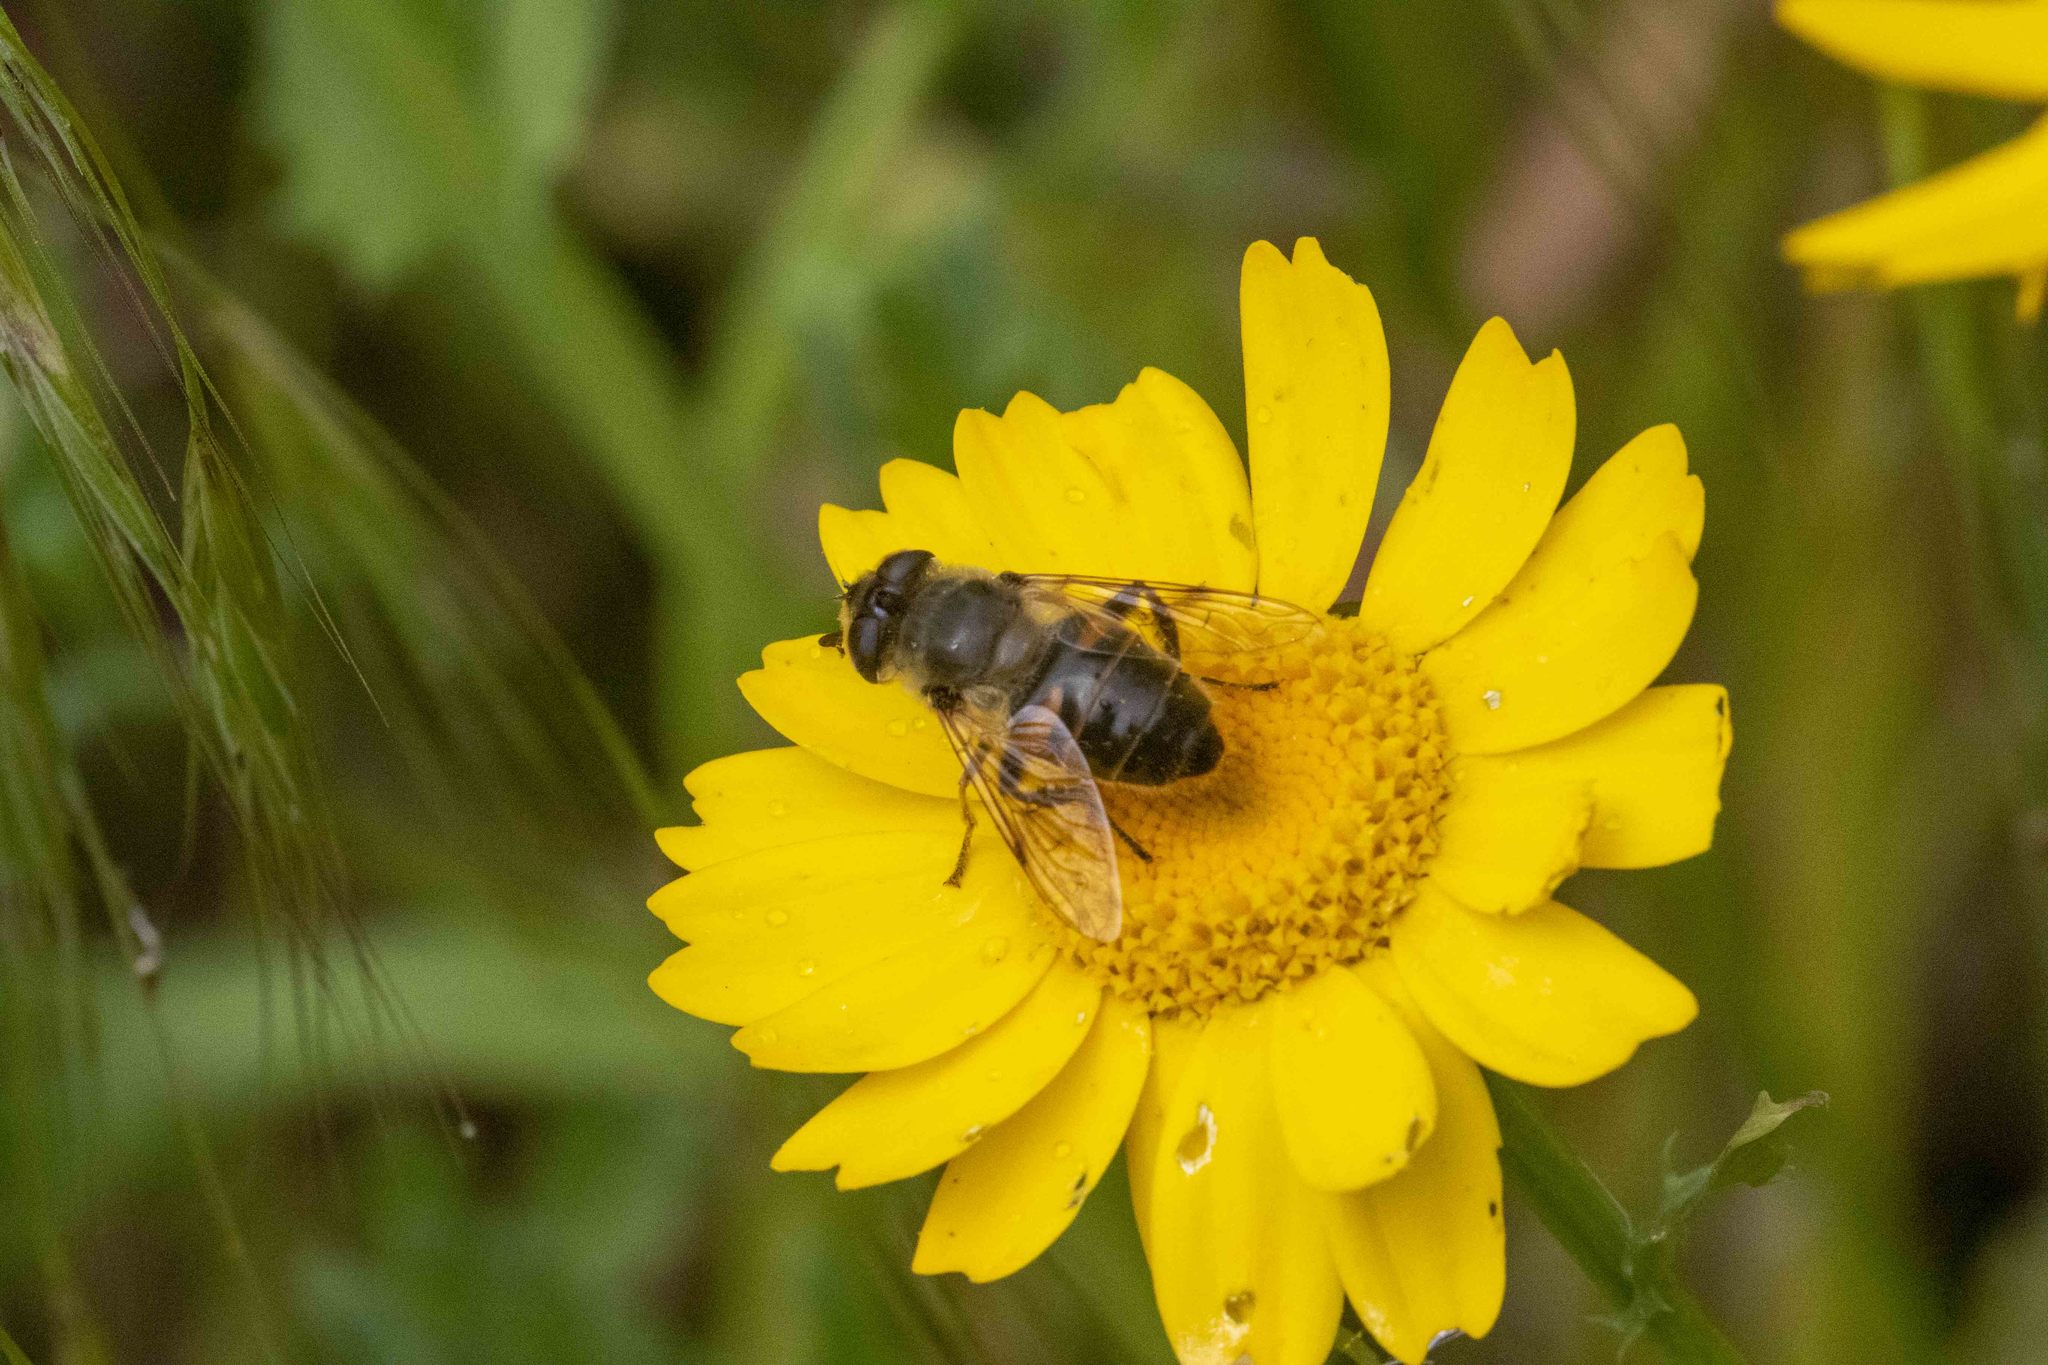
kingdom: Animalia
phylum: Arthropoda
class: Insecta
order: Diptera
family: Syrphidae
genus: Eristalis
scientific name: Eristalis tenax
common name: Drone fly
